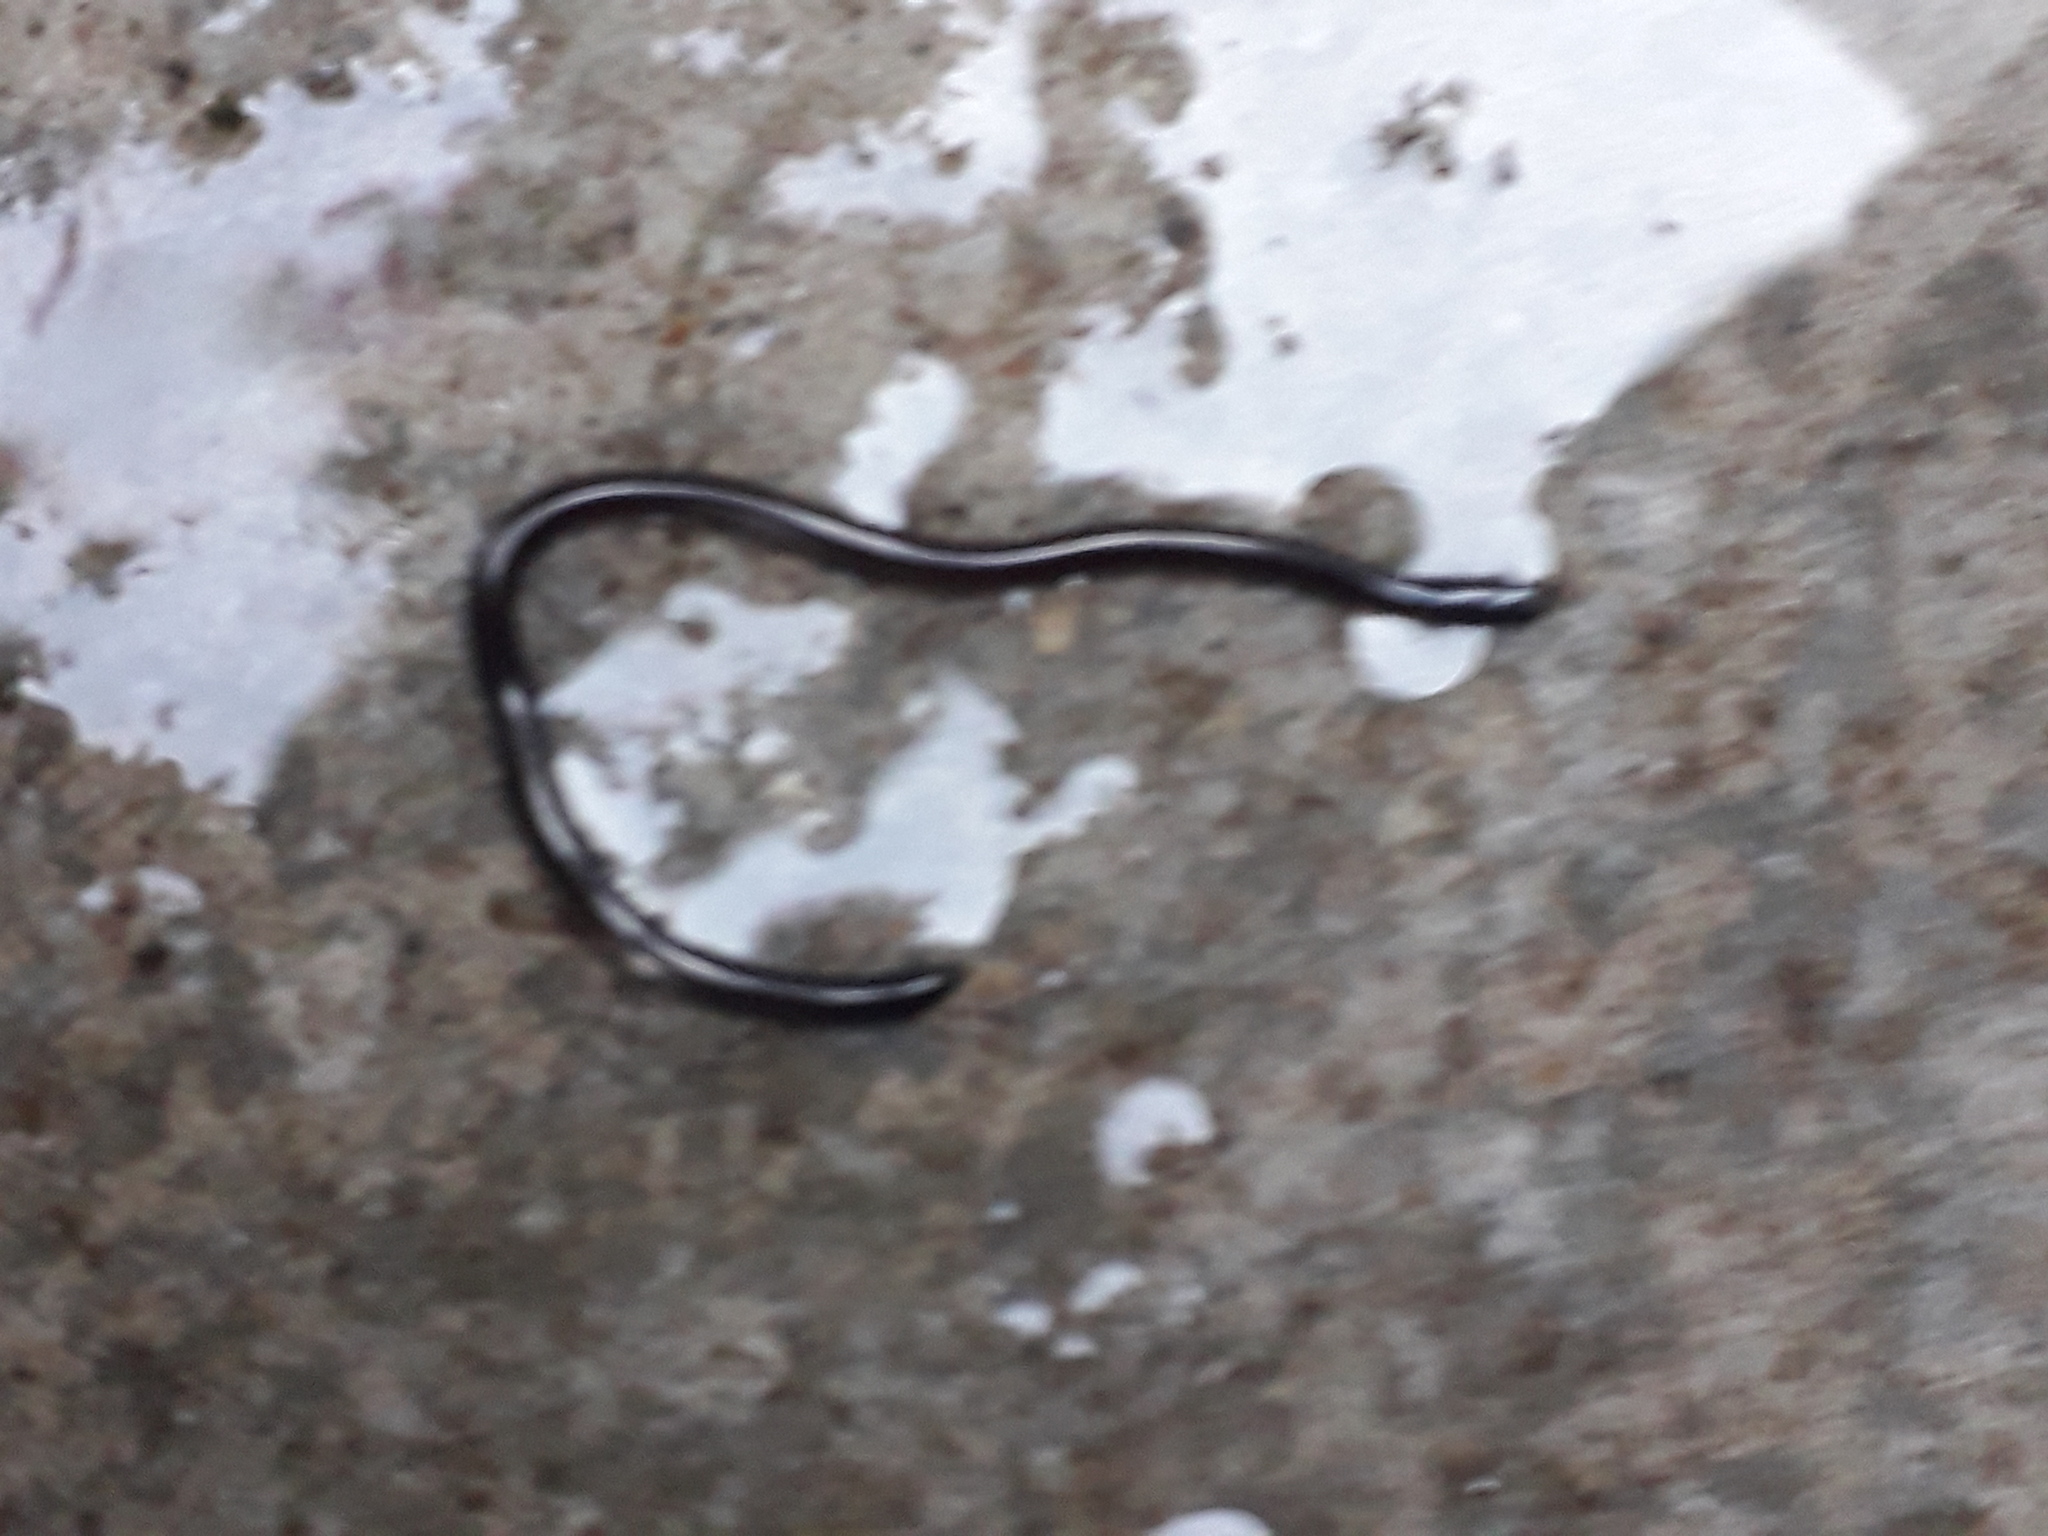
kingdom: Animalia
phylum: Chordata
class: Squamata
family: Typhlopidae
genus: Indotyphlops
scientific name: Indotyphlops braminus
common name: Brahminy blindsnake
